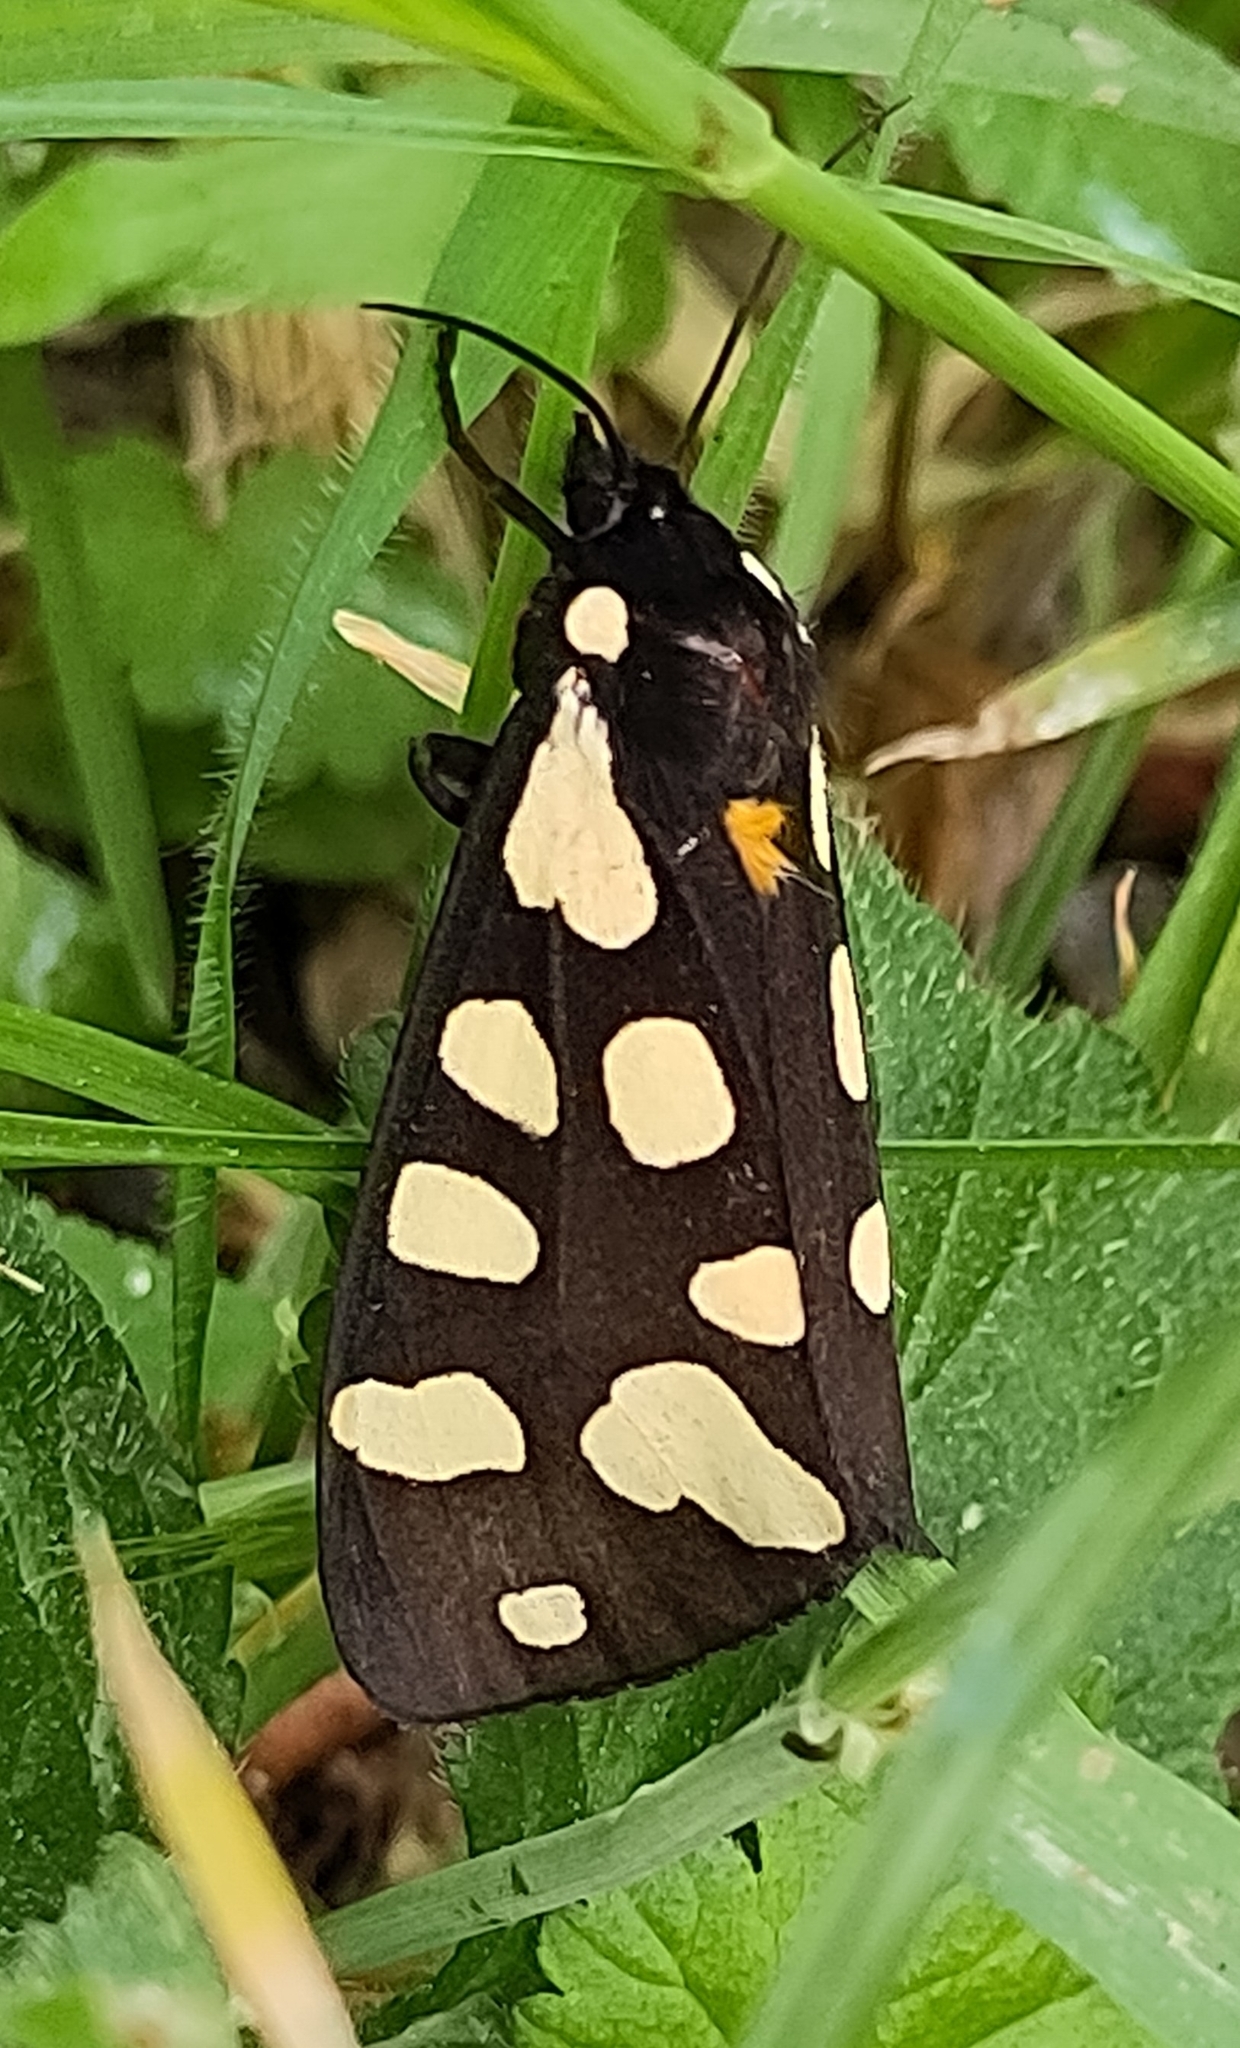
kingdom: Animalia
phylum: Arthropoda
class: Insecta
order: Lepidoptera
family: Erebidae
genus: Epicallia
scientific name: Epicallia villica
